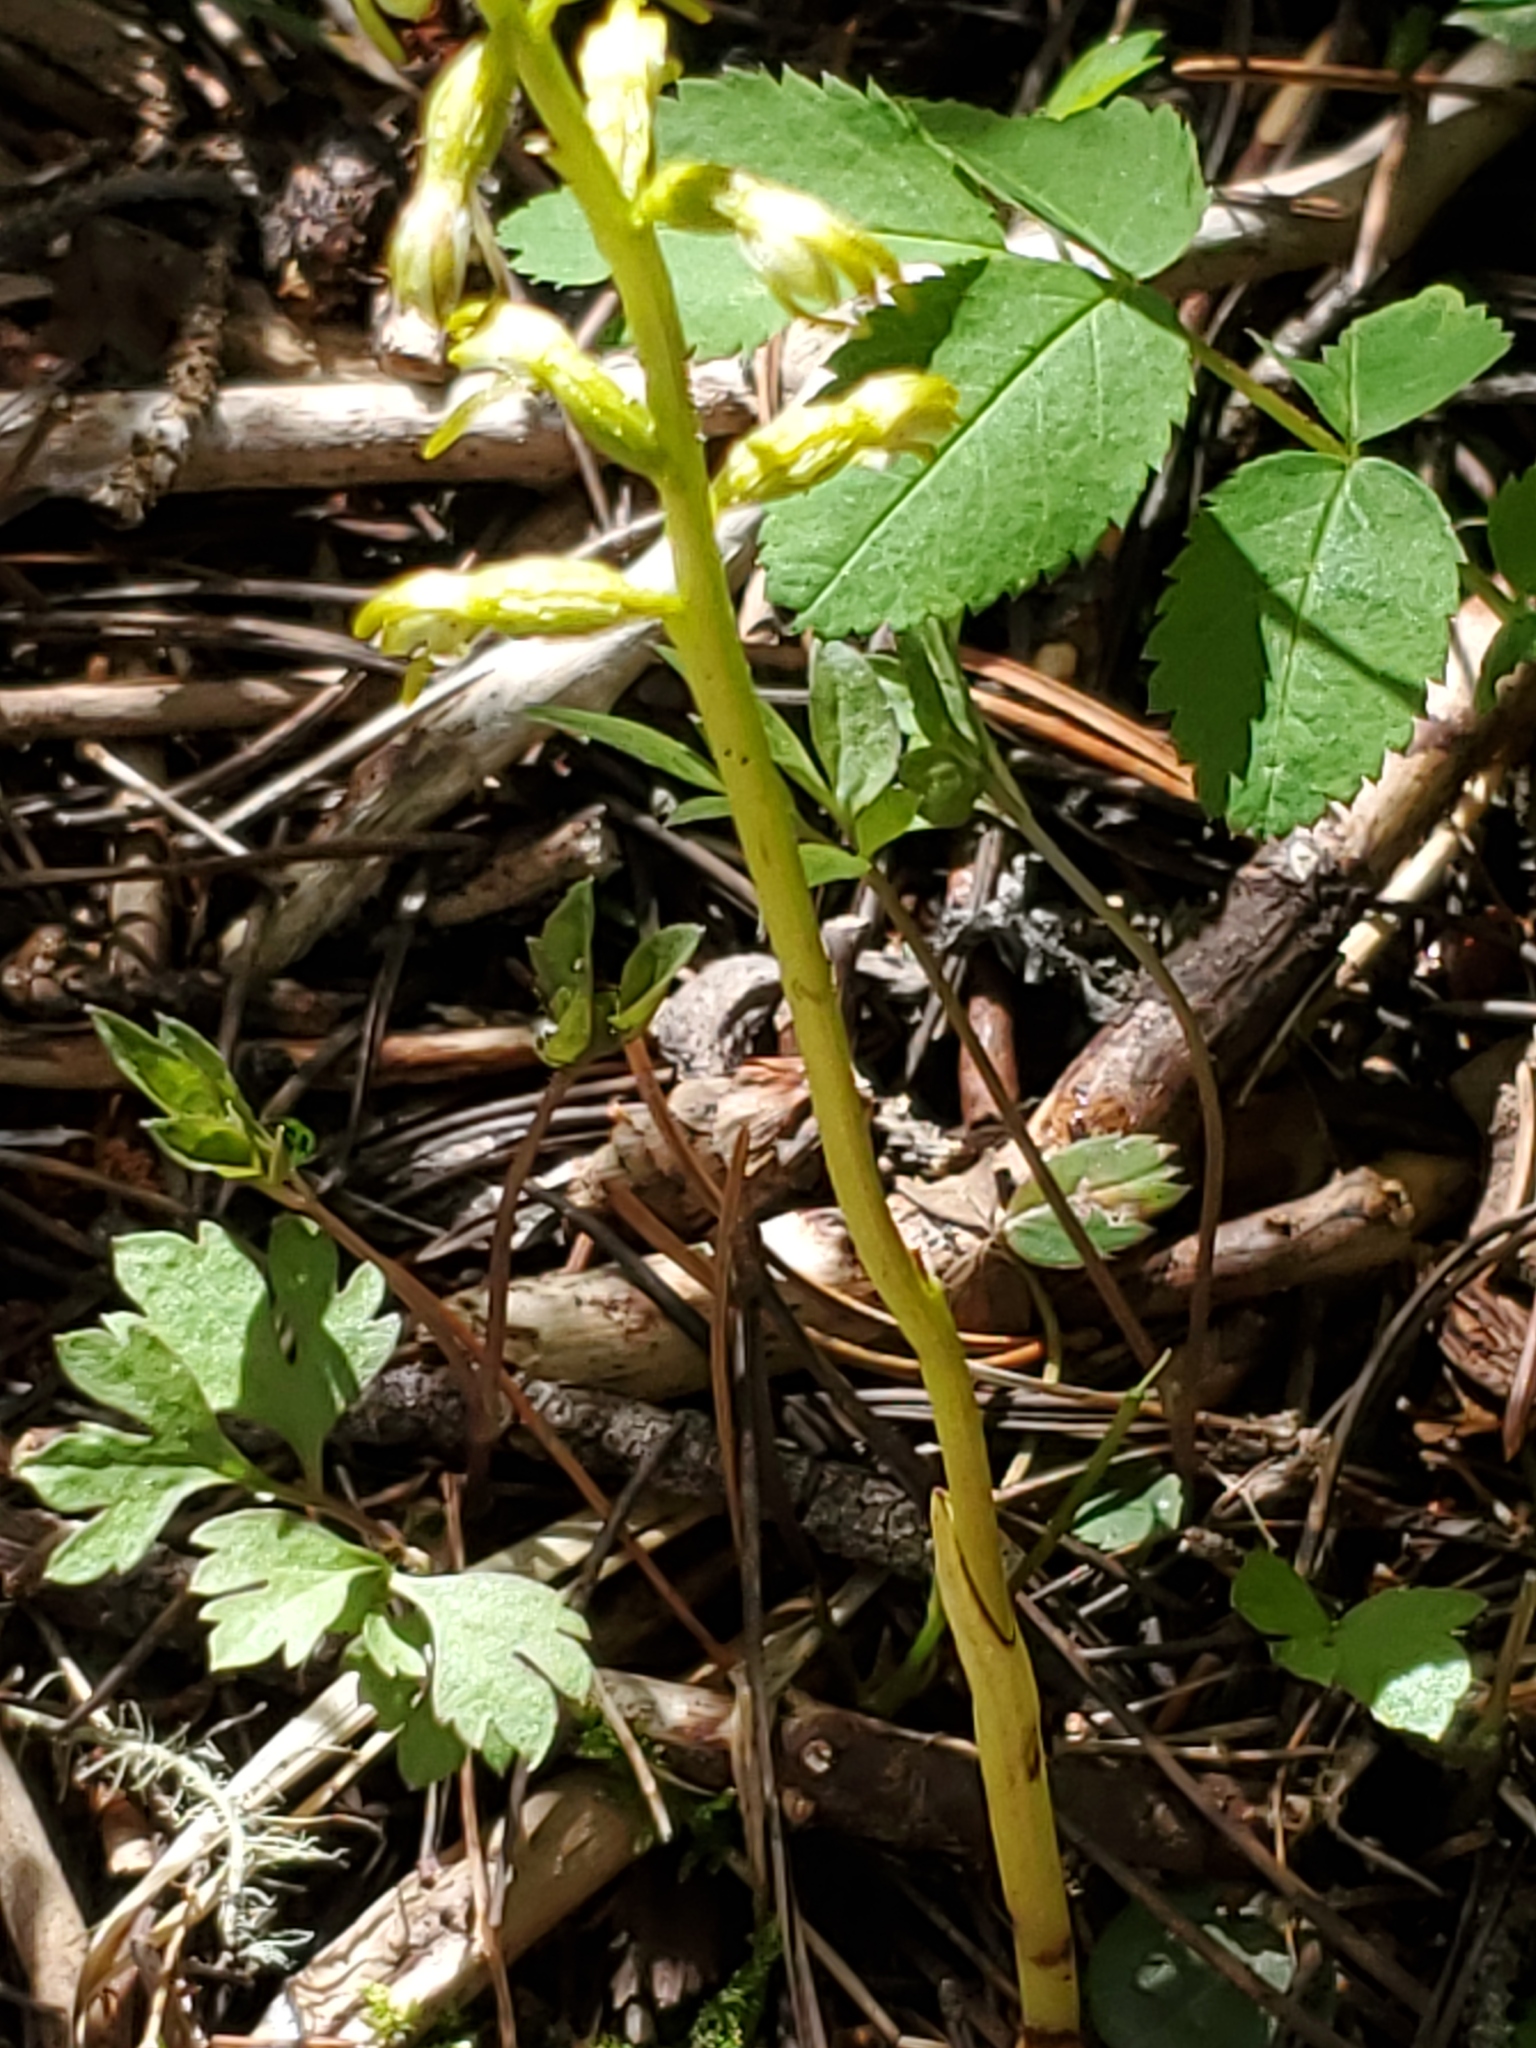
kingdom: Plantae
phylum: Tracheophyta
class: Liliopsida
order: Asparagales
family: Orchidaceae
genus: Corallorhiza
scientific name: Corallorhiza trifida
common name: Yellow coralroot
